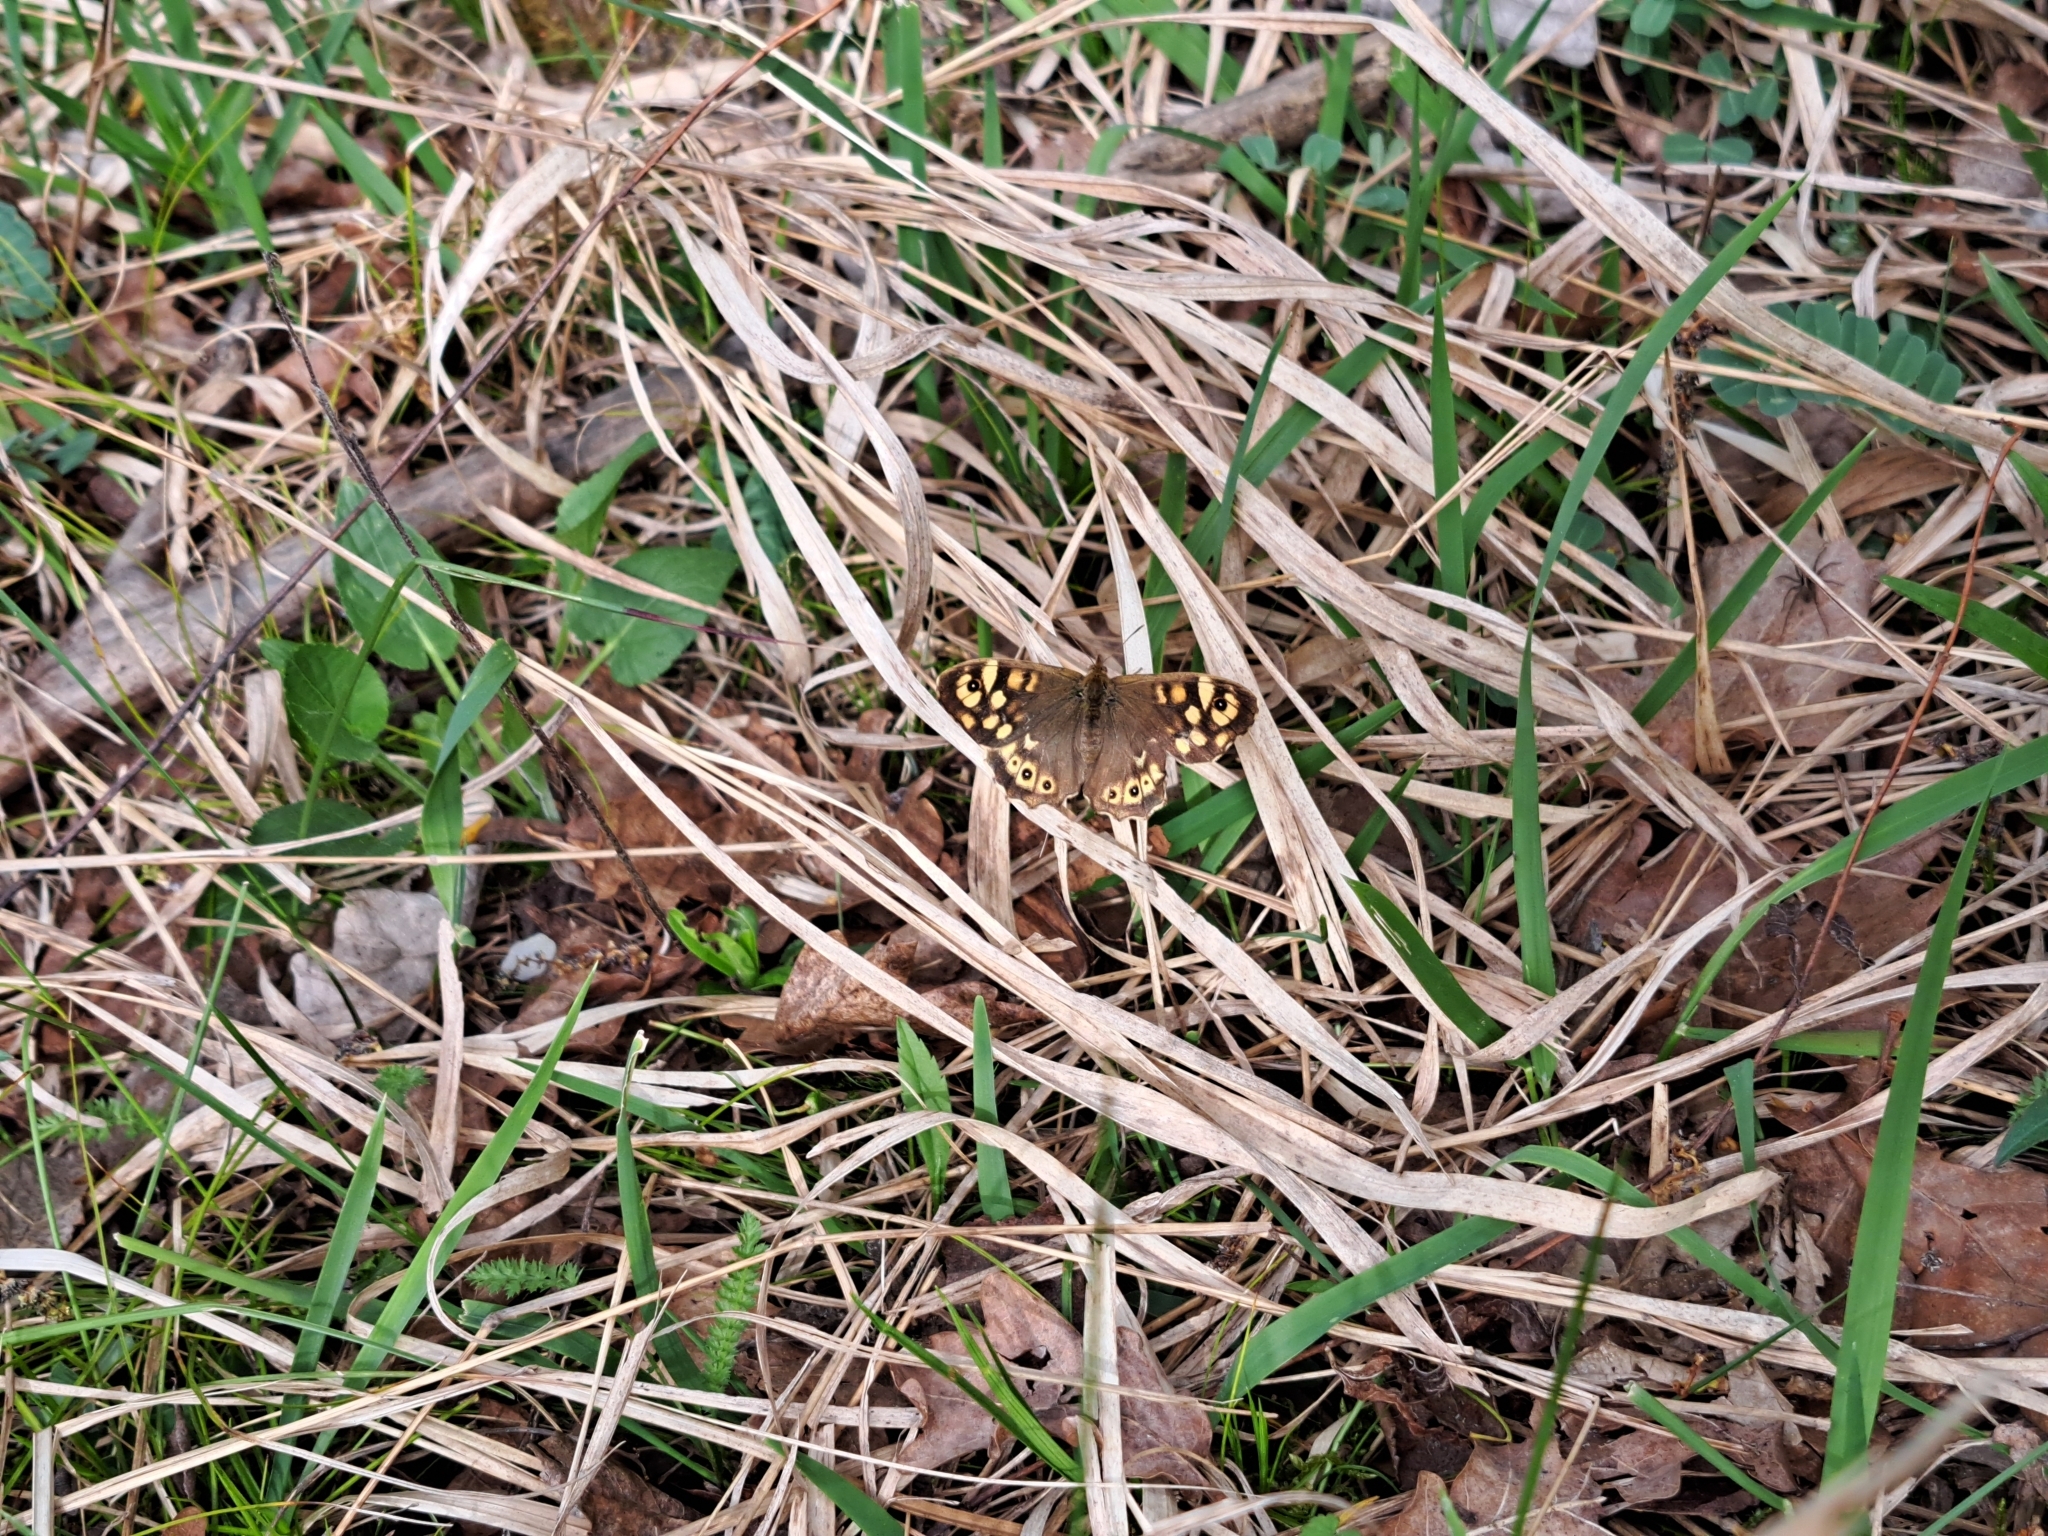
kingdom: Animalia
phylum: Arthropoda
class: Insecta
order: Lepidoptera
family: Nymphalidae
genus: Pararge
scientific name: Pararge aegeria
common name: Speckled wood
